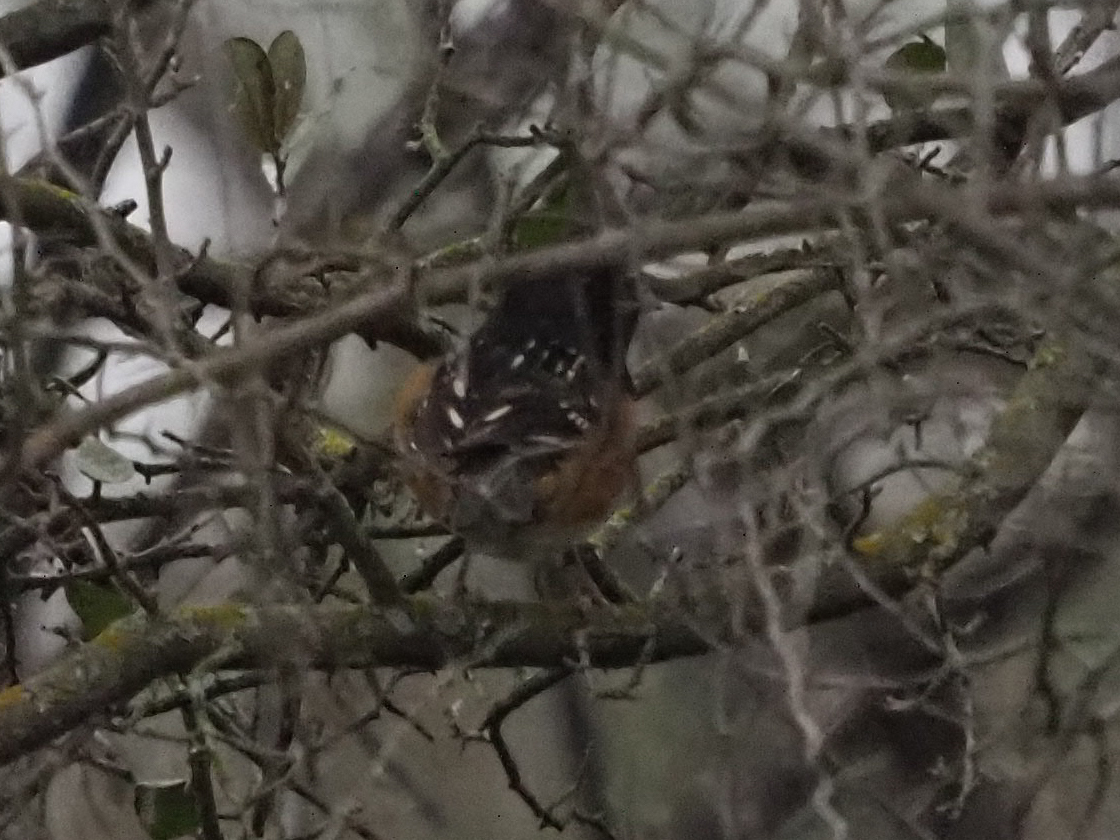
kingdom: Animalia
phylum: Chordata
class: Aves
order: Passeriformes
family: Passerellidae
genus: Pipilo
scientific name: Pipilo maculatus
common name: Spotted towhee
